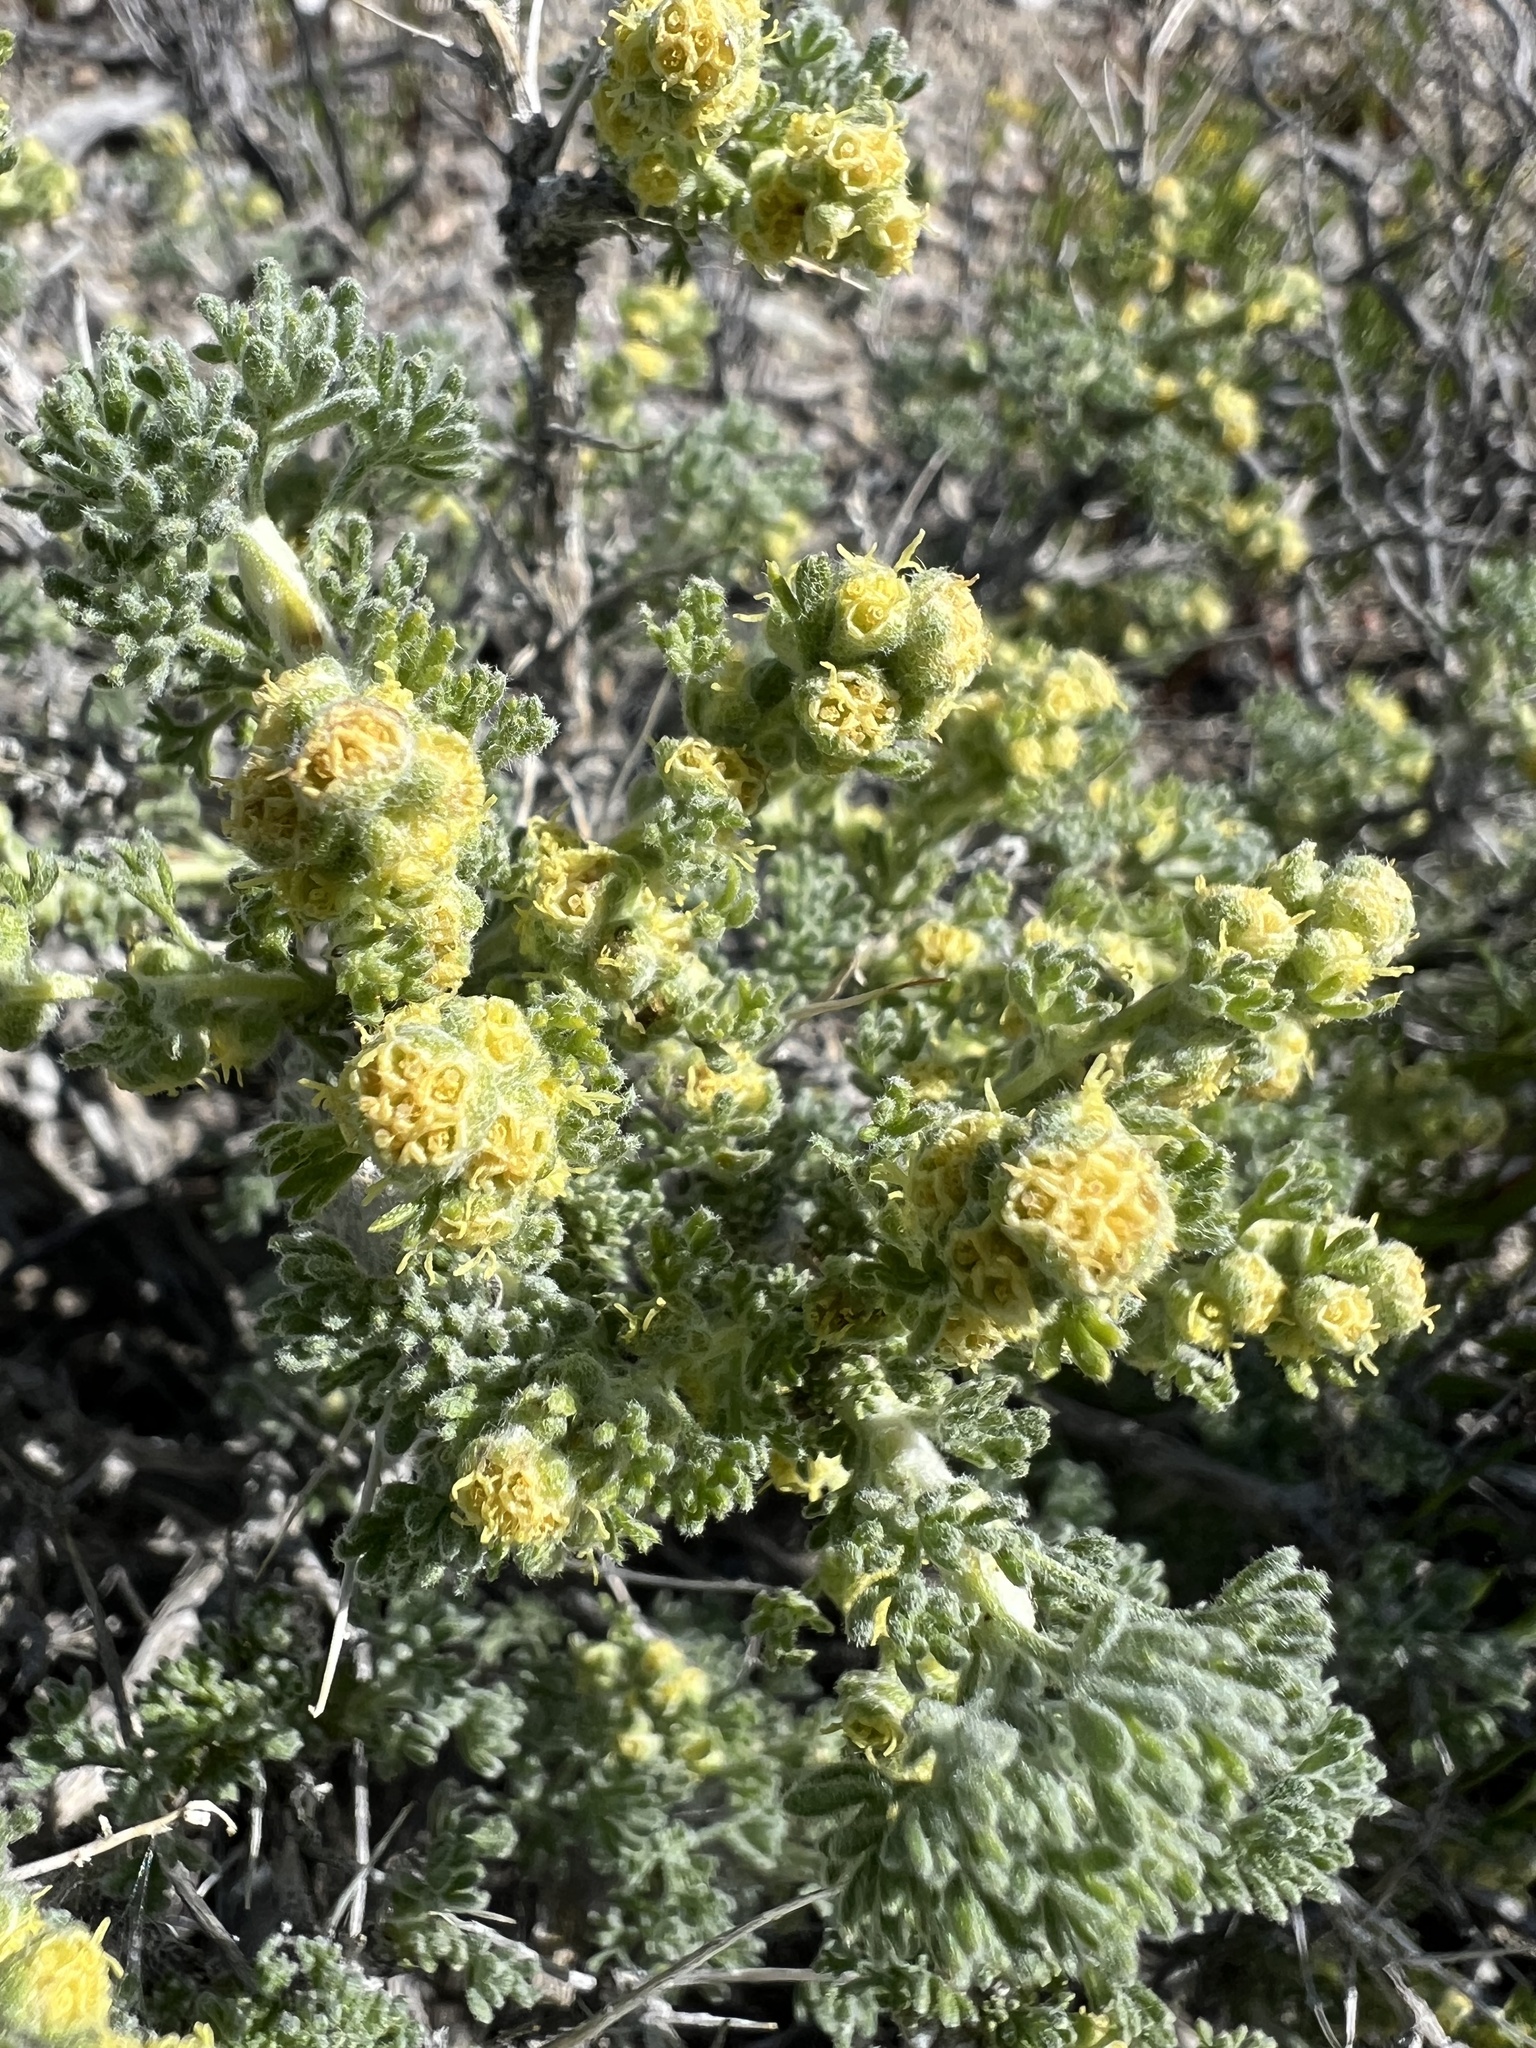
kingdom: Plantae
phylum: Tracheophyta
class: Magnoliopsida
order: Asterales
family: Asteraceae
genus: Artemisia
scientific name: Artemisia spinescens
